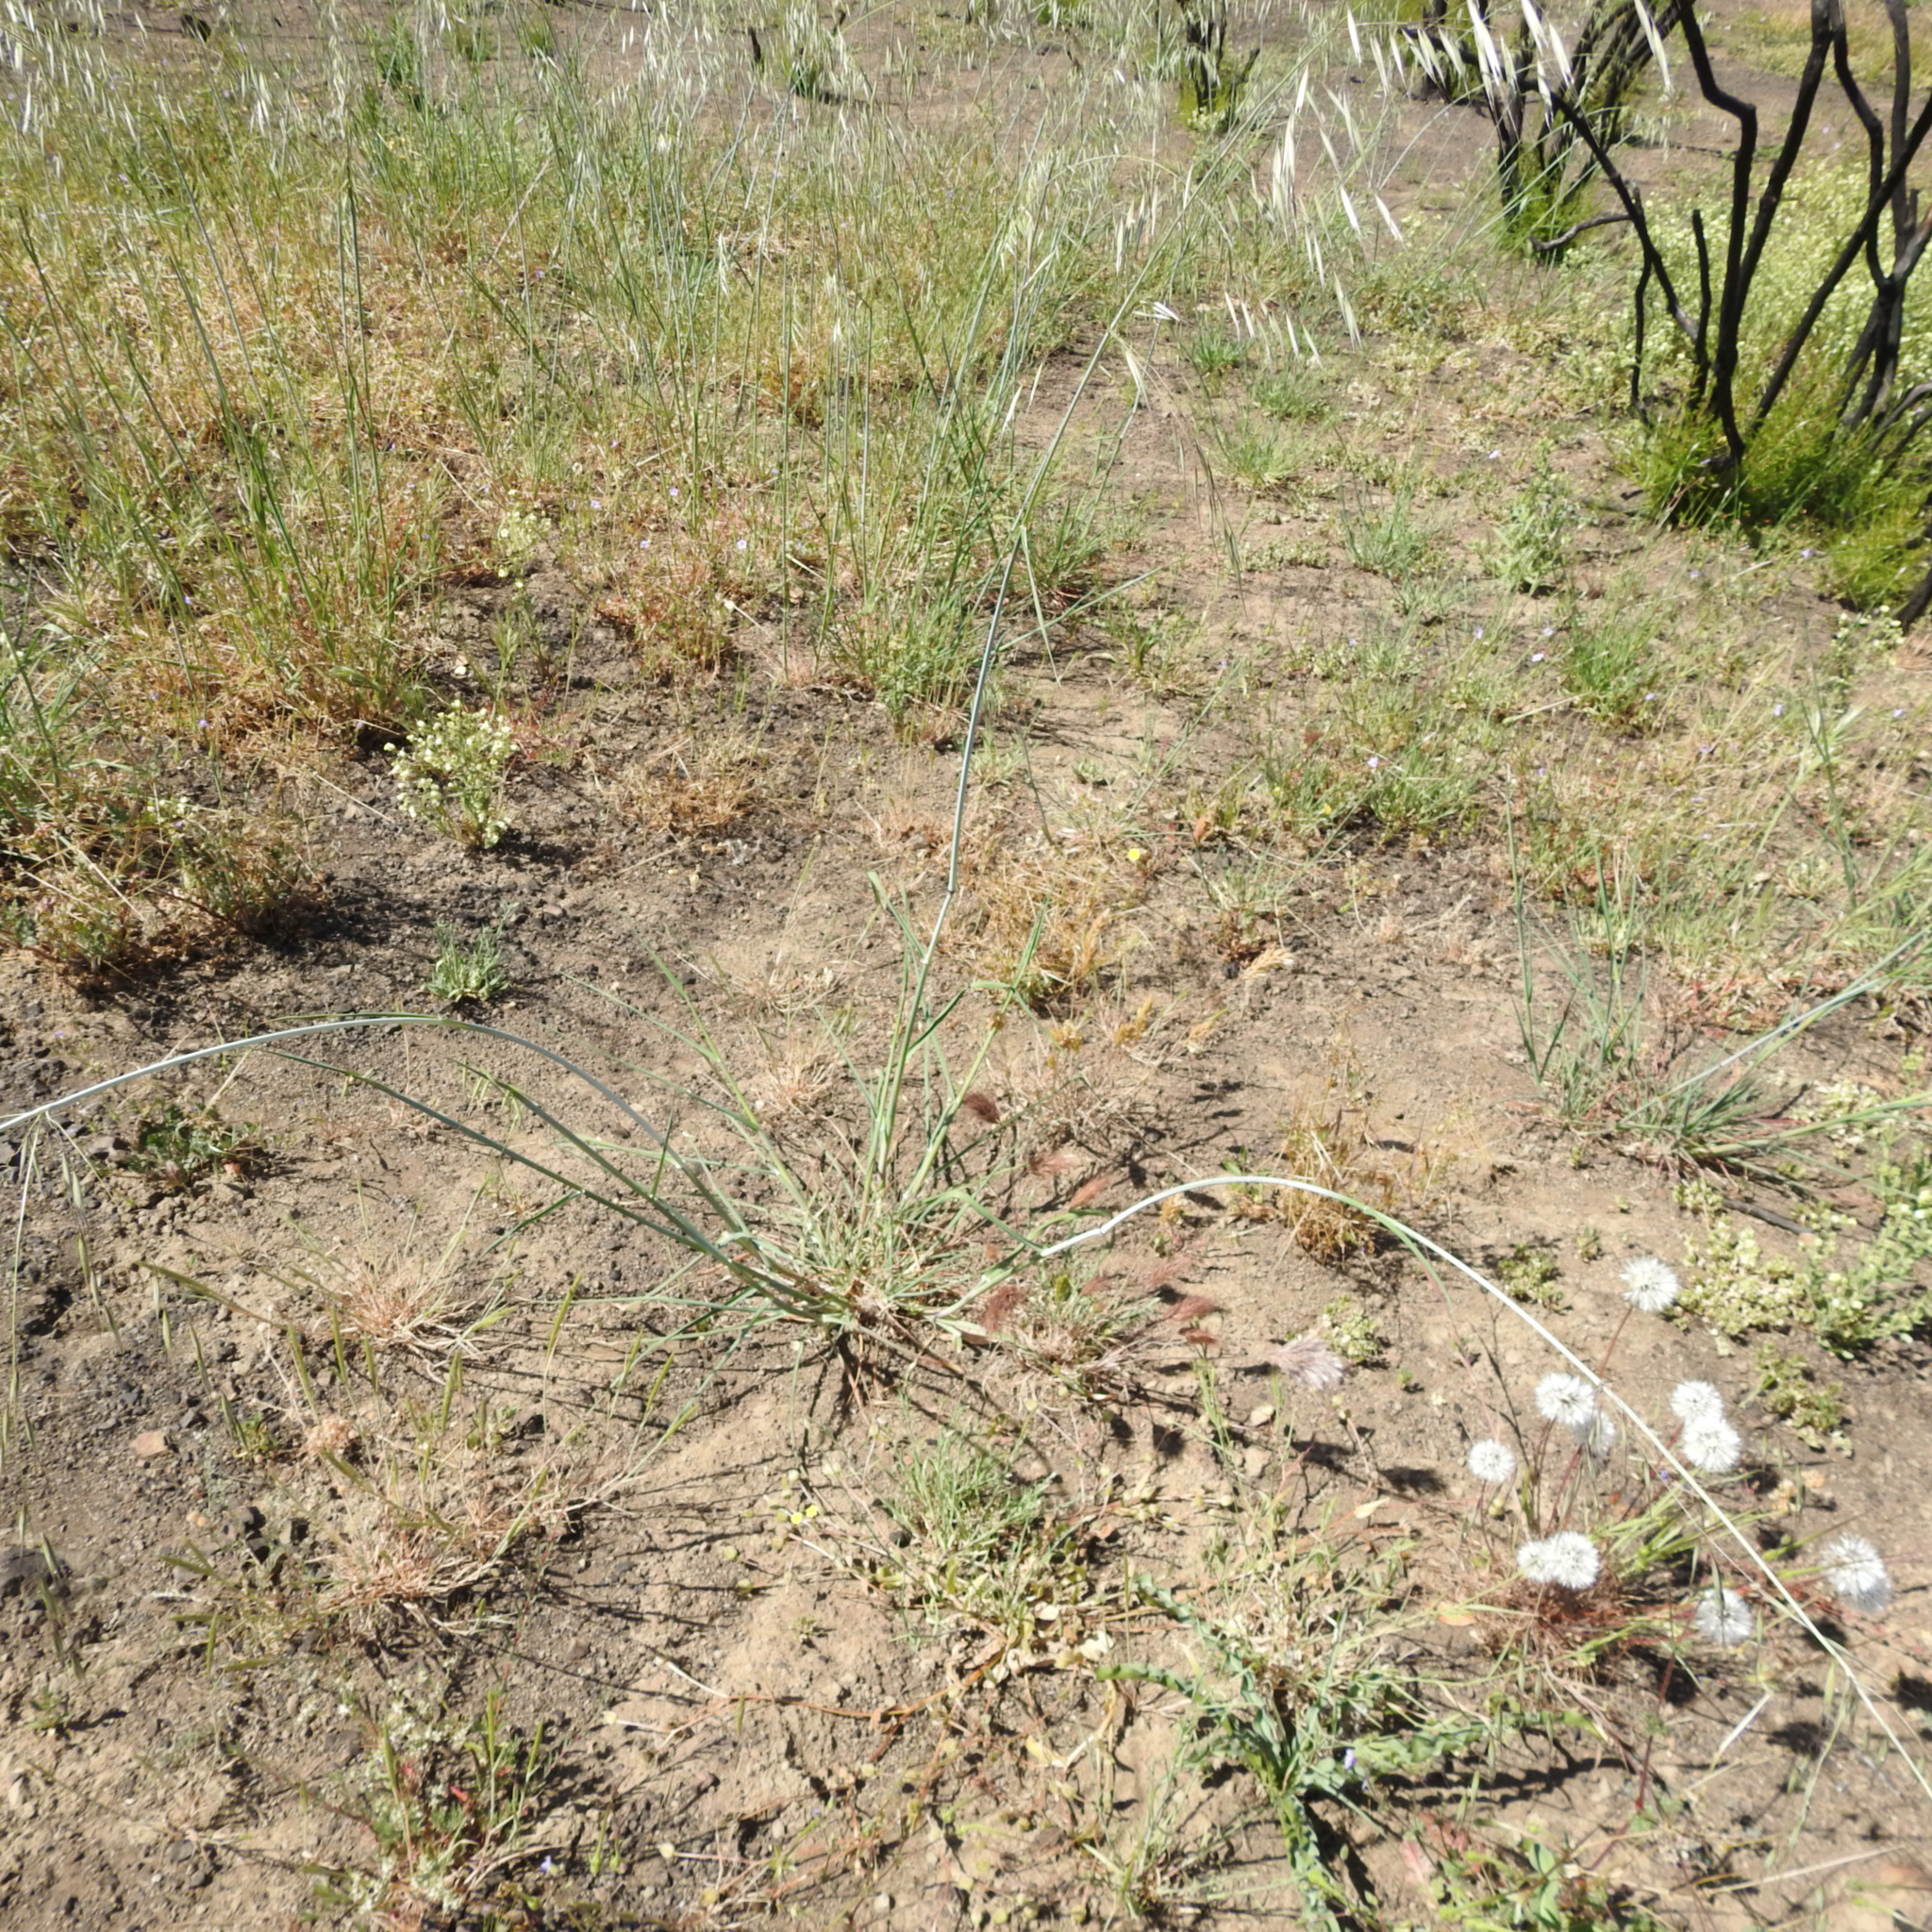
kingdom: Plantae
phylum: Tracheophyta
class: Liliopsida
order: Poales
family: Poaceae
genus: Avena
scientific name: Avena barbata
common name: Slender oat
